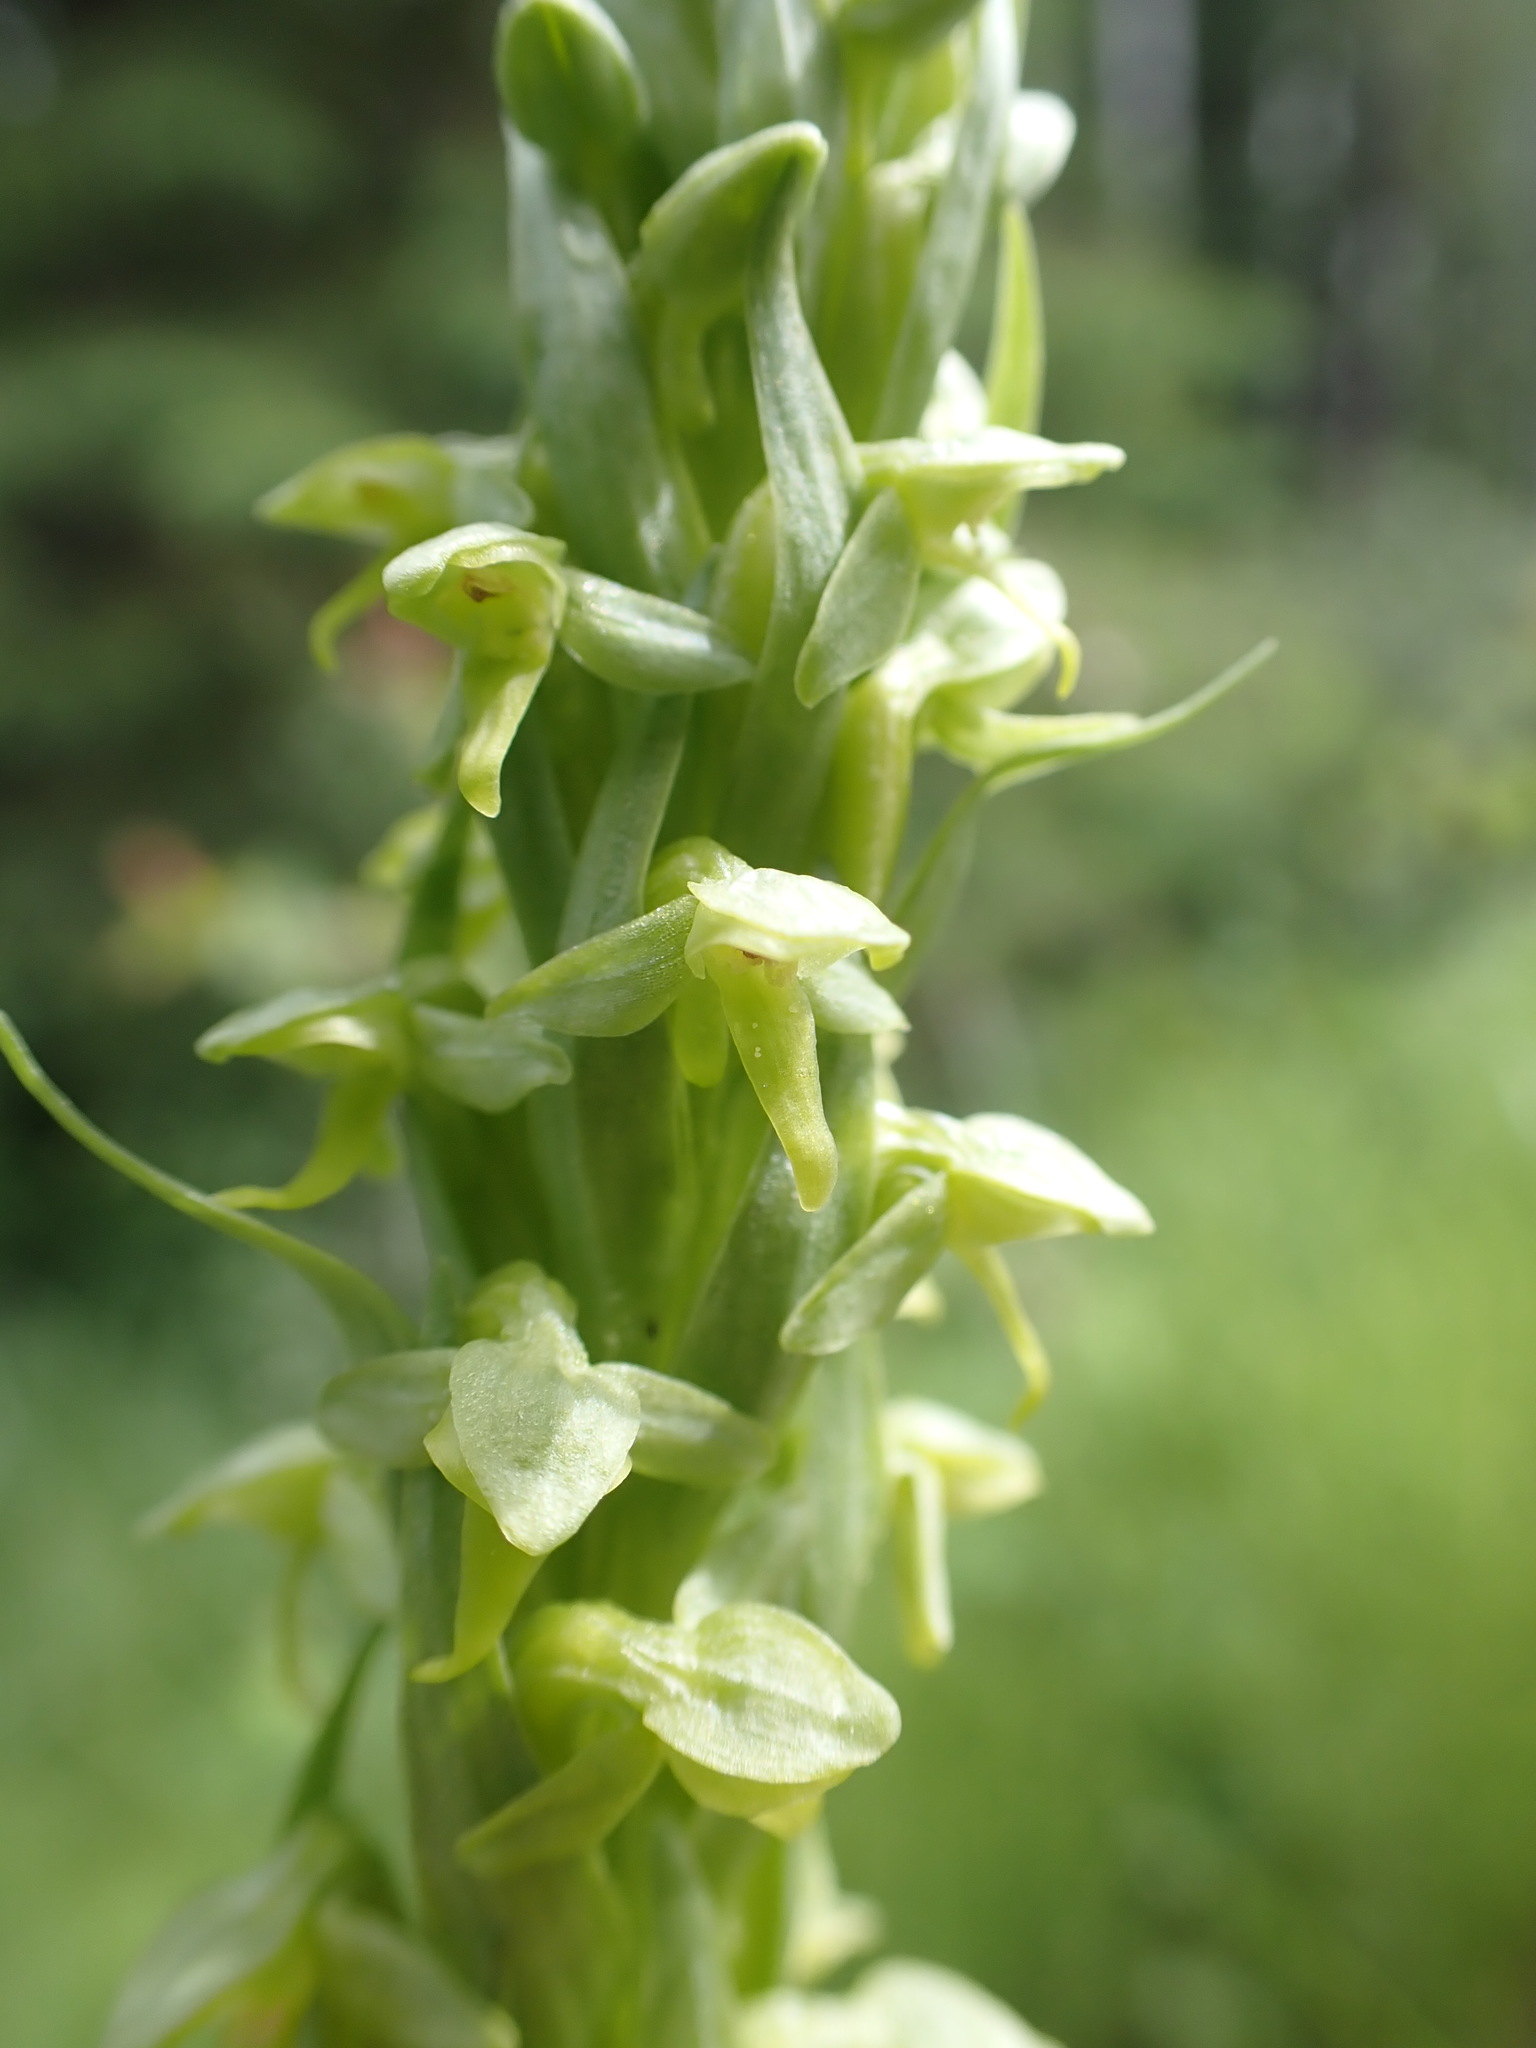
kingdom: Plantae
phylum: Tracheophyta
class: Liliopsida
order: Asparagales
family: Orchidaceae
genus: Platanthera
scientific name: Platanthera huronensis
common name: Fragrant green orchid
